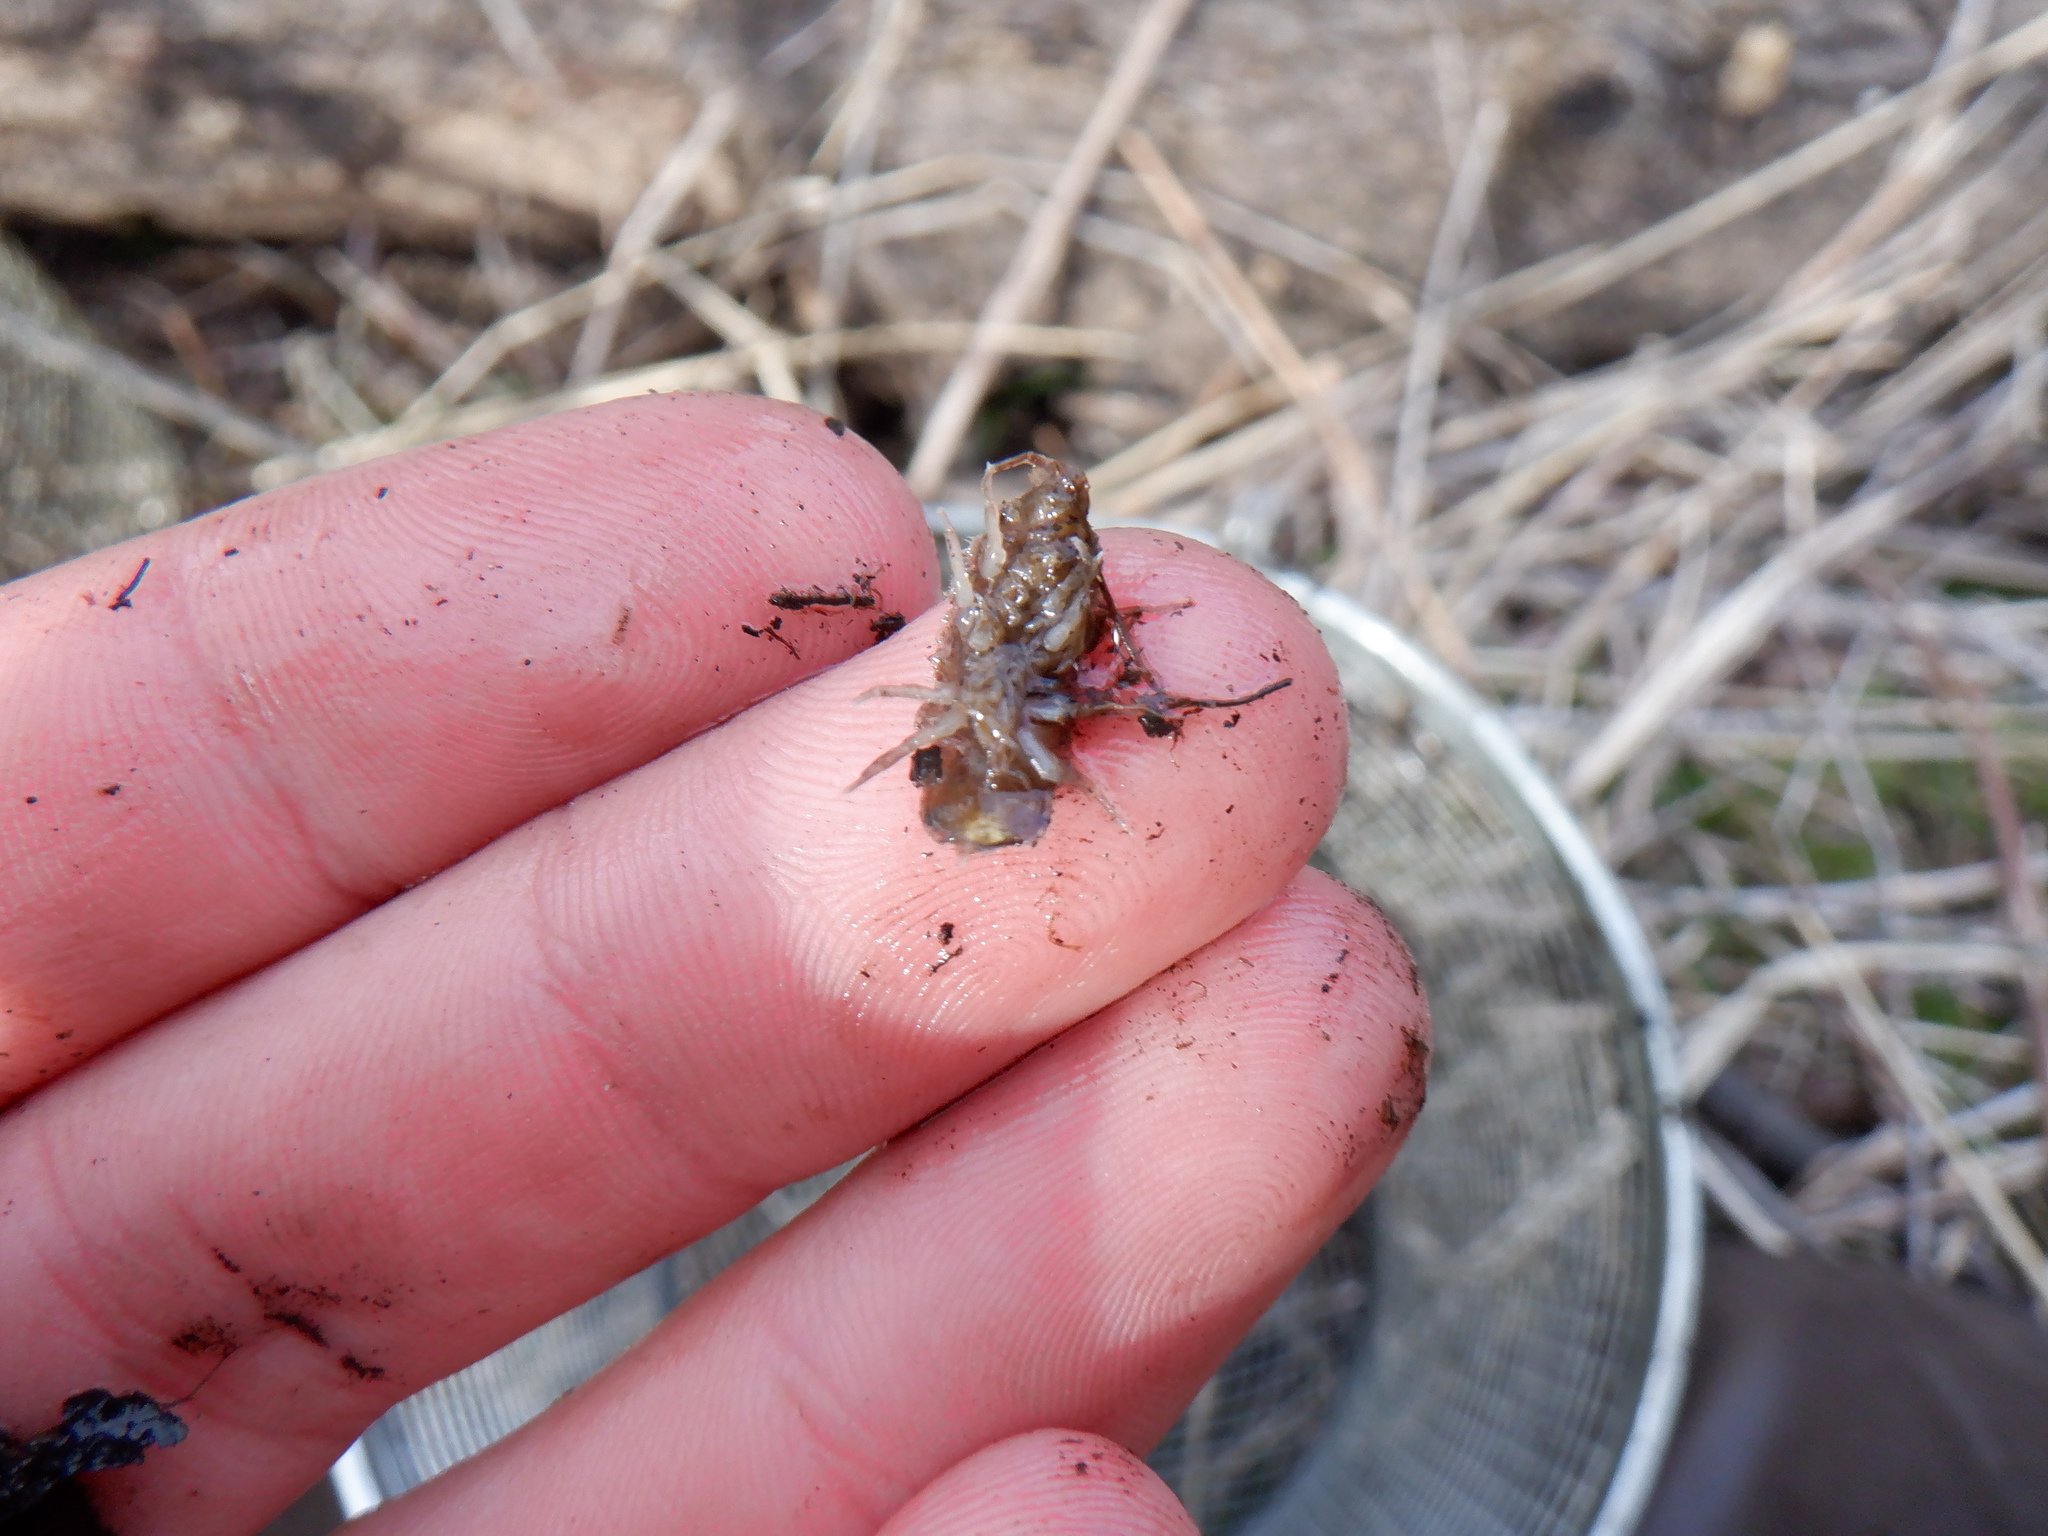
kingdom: Animalia
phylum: Arthropoda
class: Malacostraca
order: Isopoda
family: Asellidae
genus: Caecidotea
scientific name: Caecidotea
